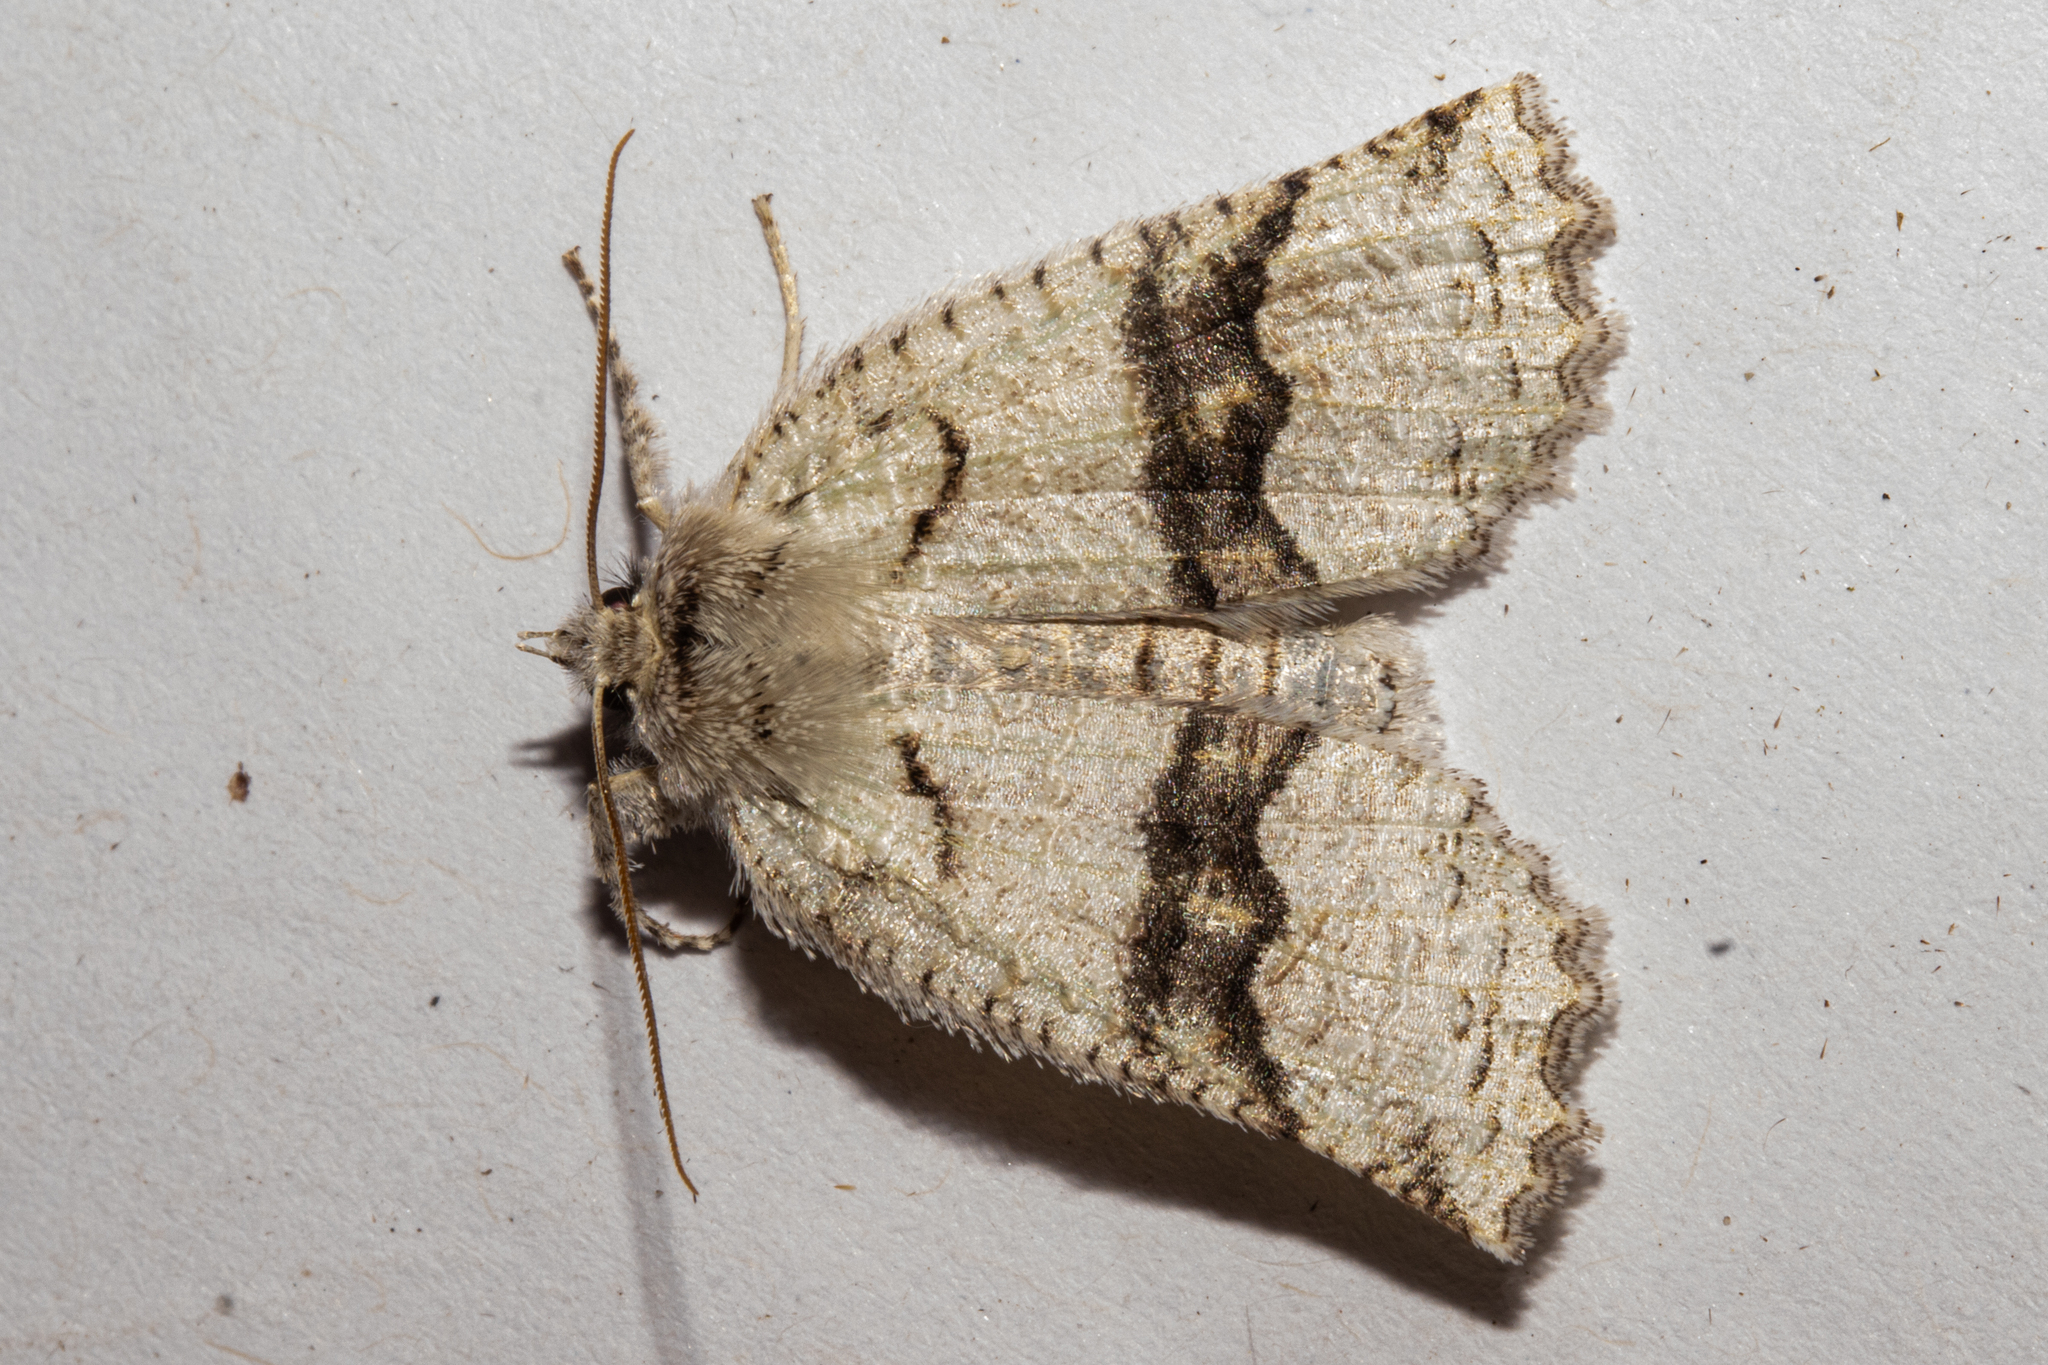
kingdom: Animalia
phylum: Arthropoda
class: Insecta
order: Lepidoptera
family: Geometridae
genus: Declana
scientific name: Declana floccosa
